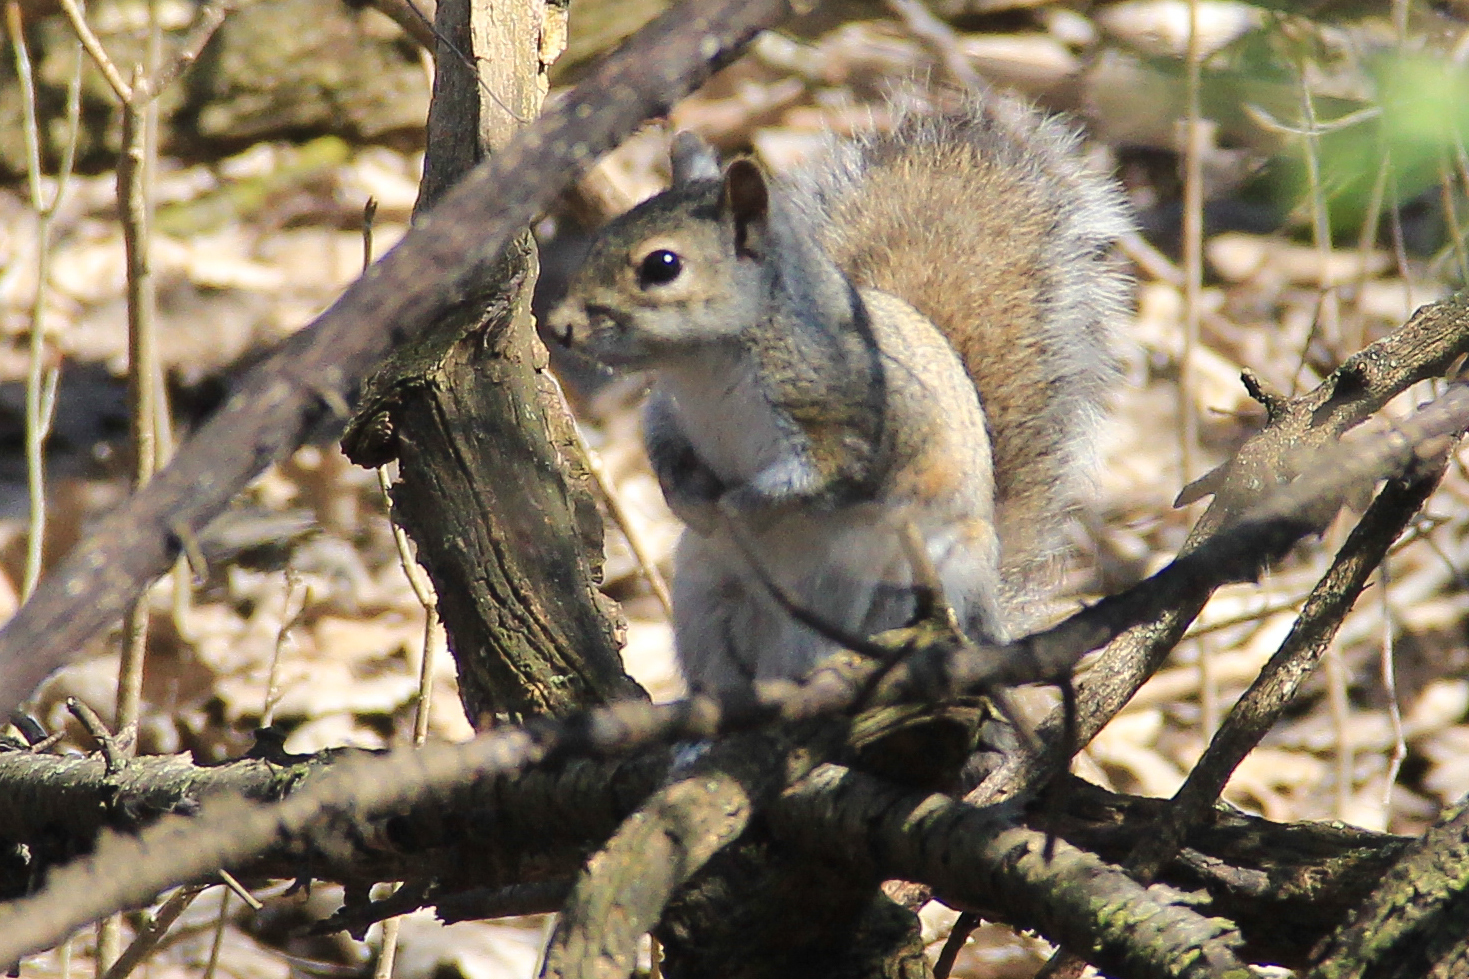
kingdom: Animalia
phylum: Chordata
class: Mammalia
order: Rodentia
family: Sciuridae
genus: Sciurus
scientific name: Sciurus carolinensis
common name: Eastern gray squirrel
